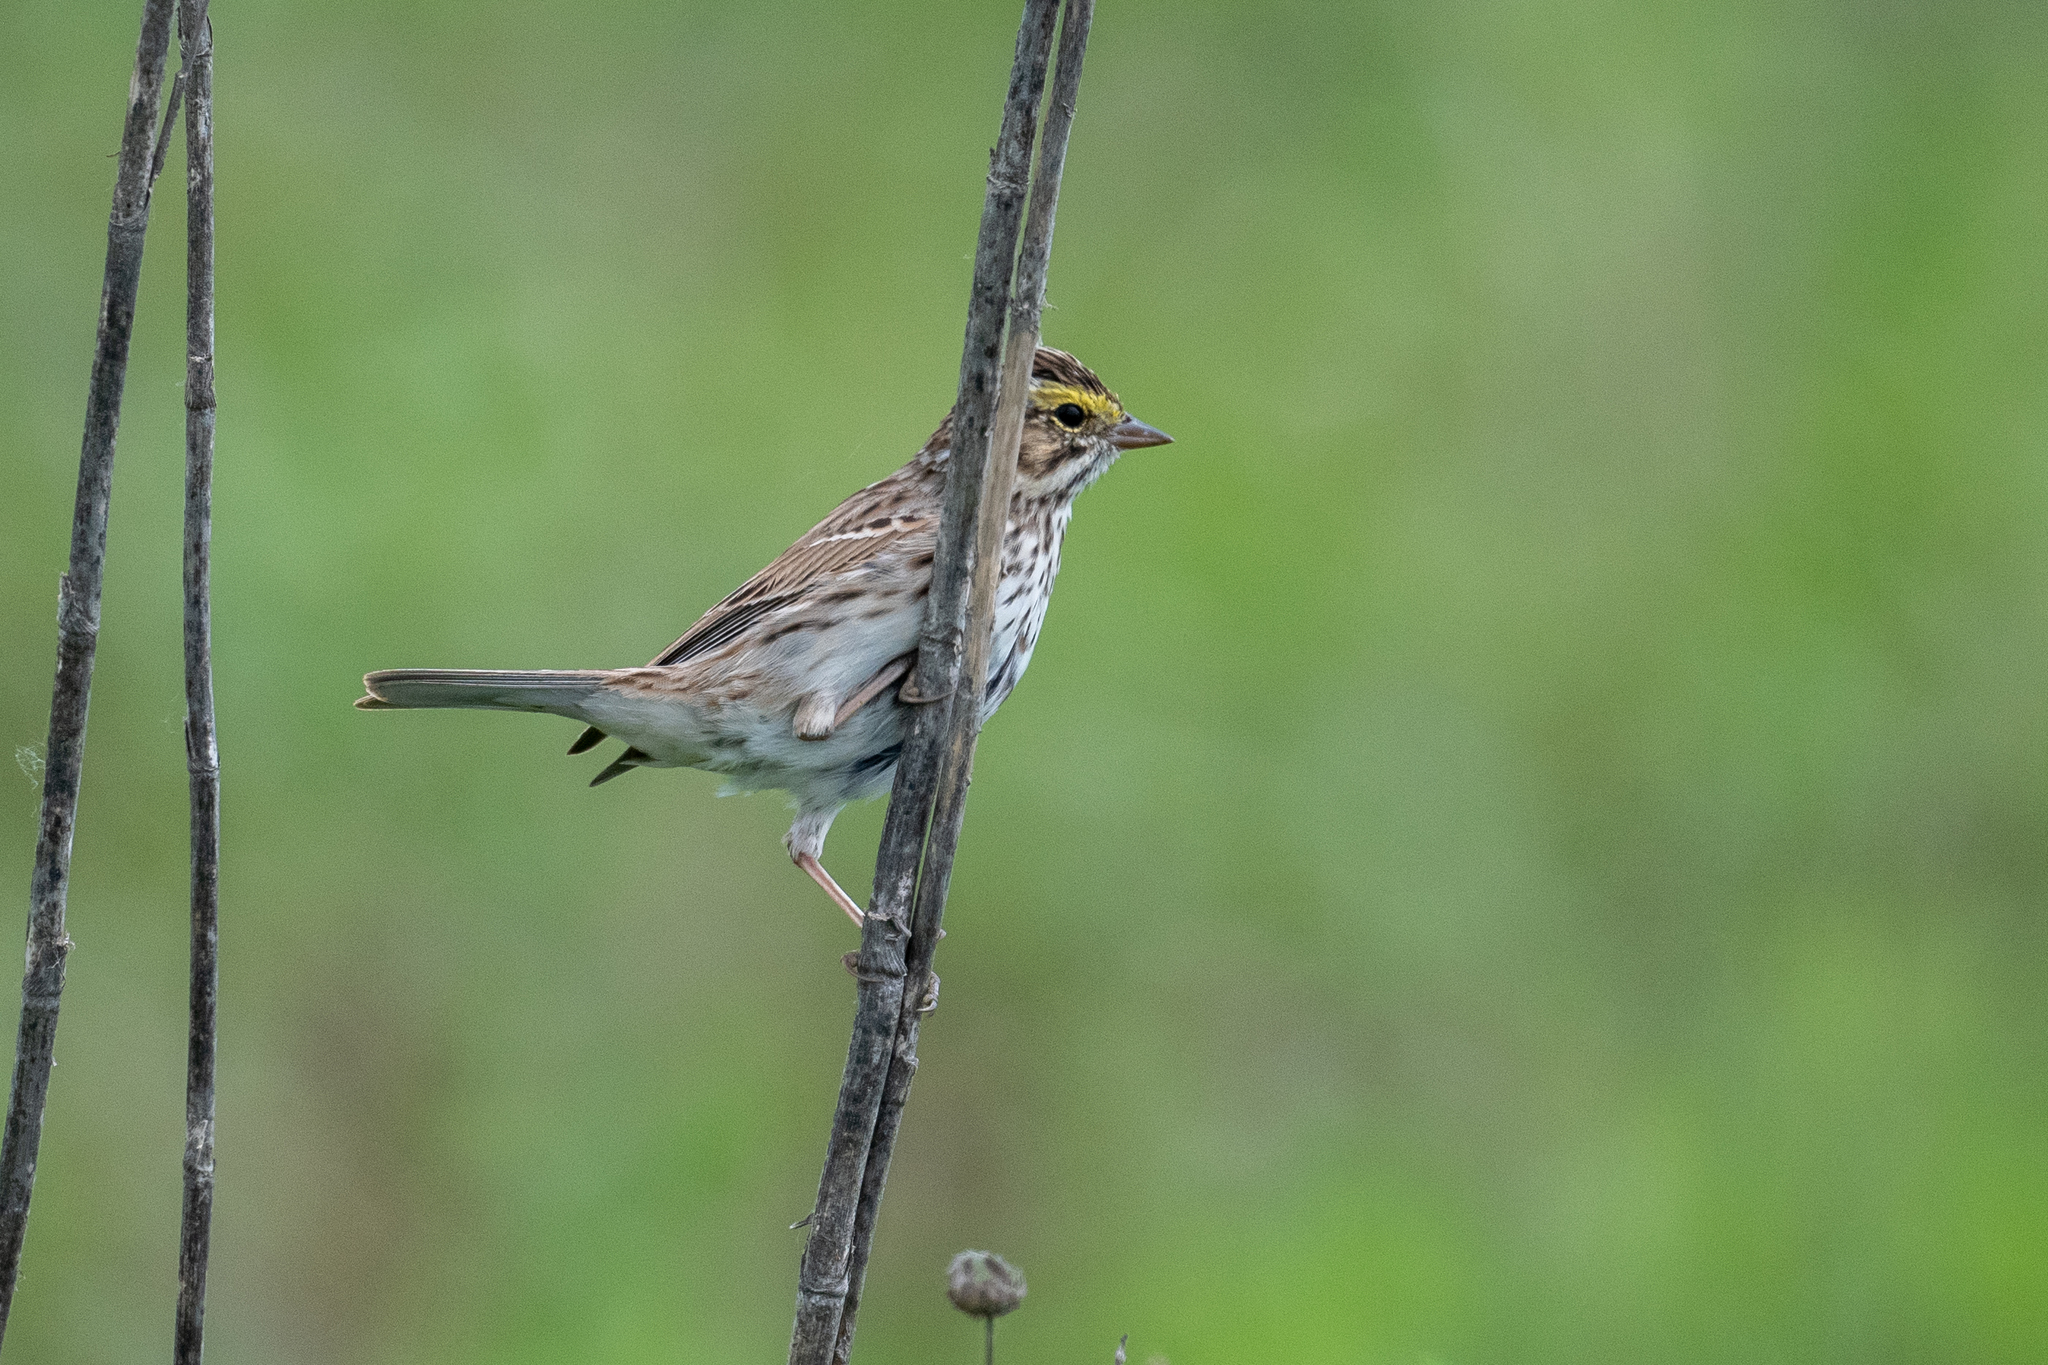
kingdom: Animalia
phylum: Chordata
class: Aves
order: Passeriformes
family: Passerellidae
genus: Passerculus
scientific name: Passerculus sandwichensis
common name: Savannah sparrow
